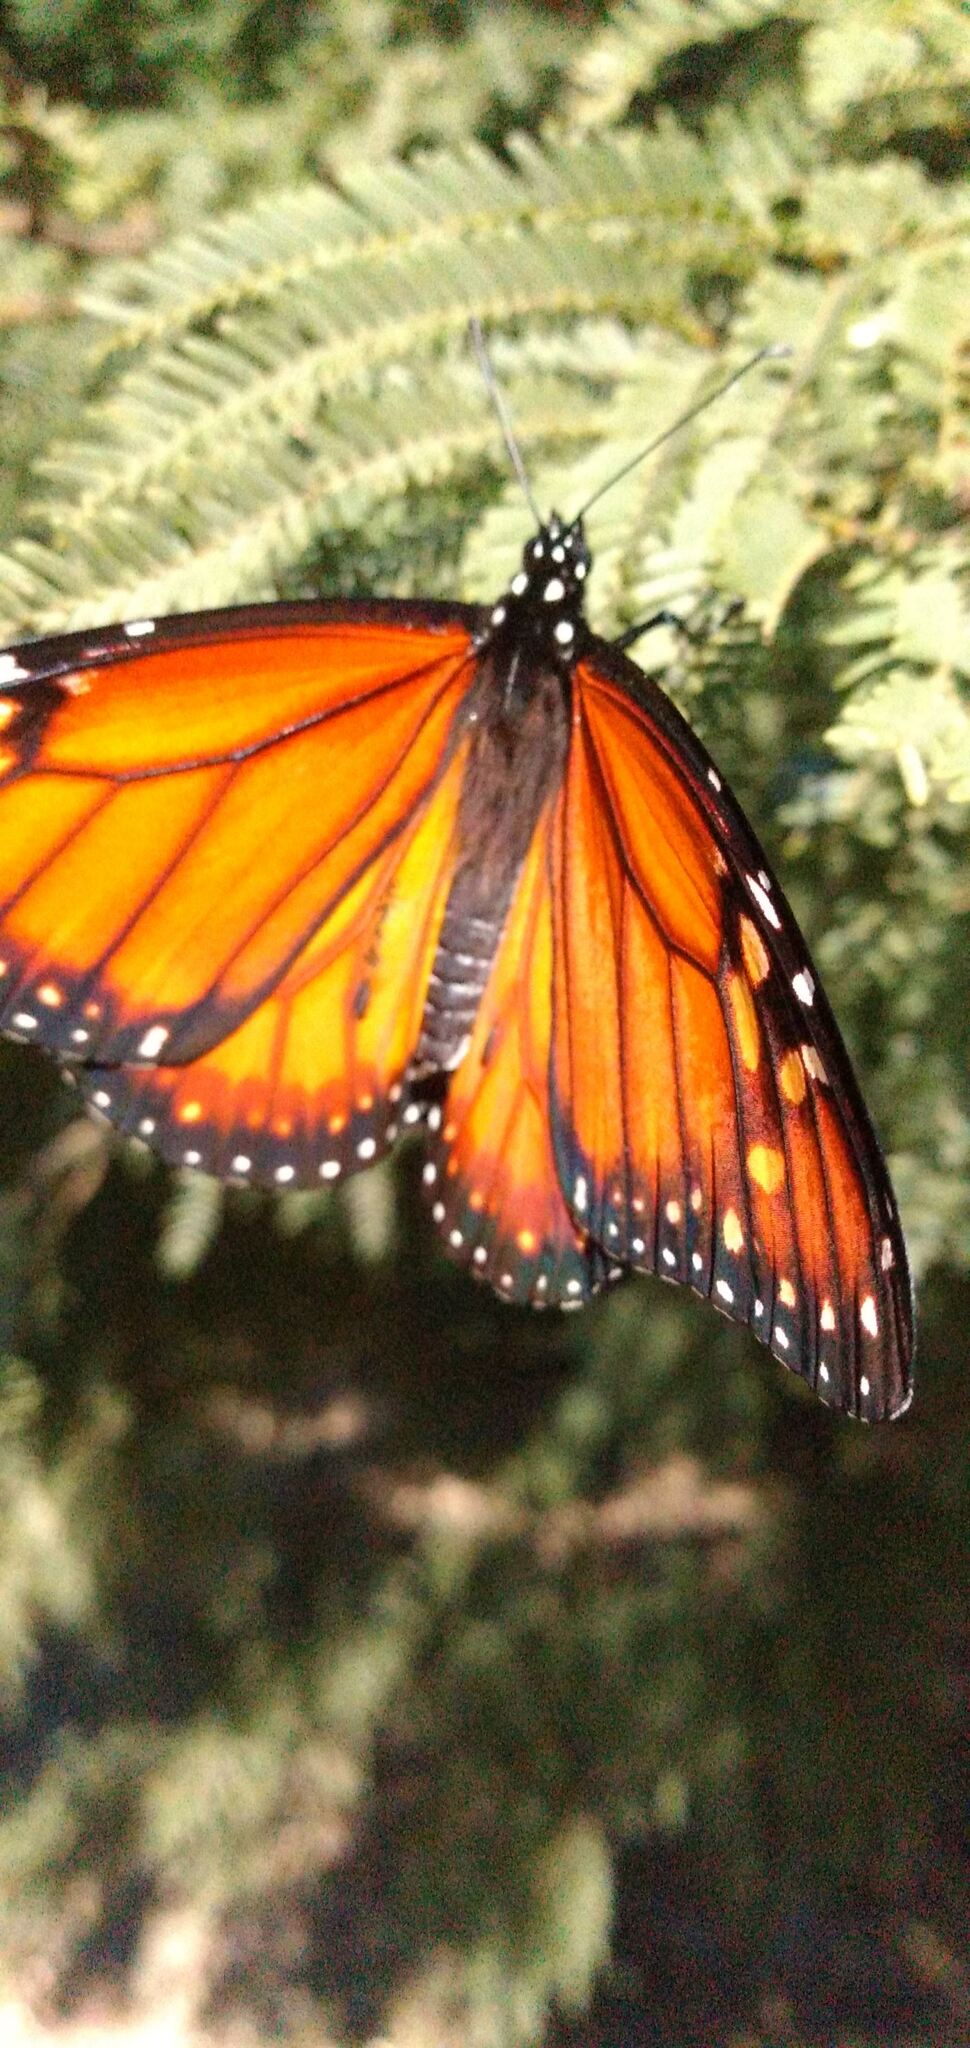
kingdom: Animalia
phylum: Arthropoda
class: Insecta
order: Lepidoptera
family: Nymphalidae
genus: Danaus
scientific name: Danaus erippus
